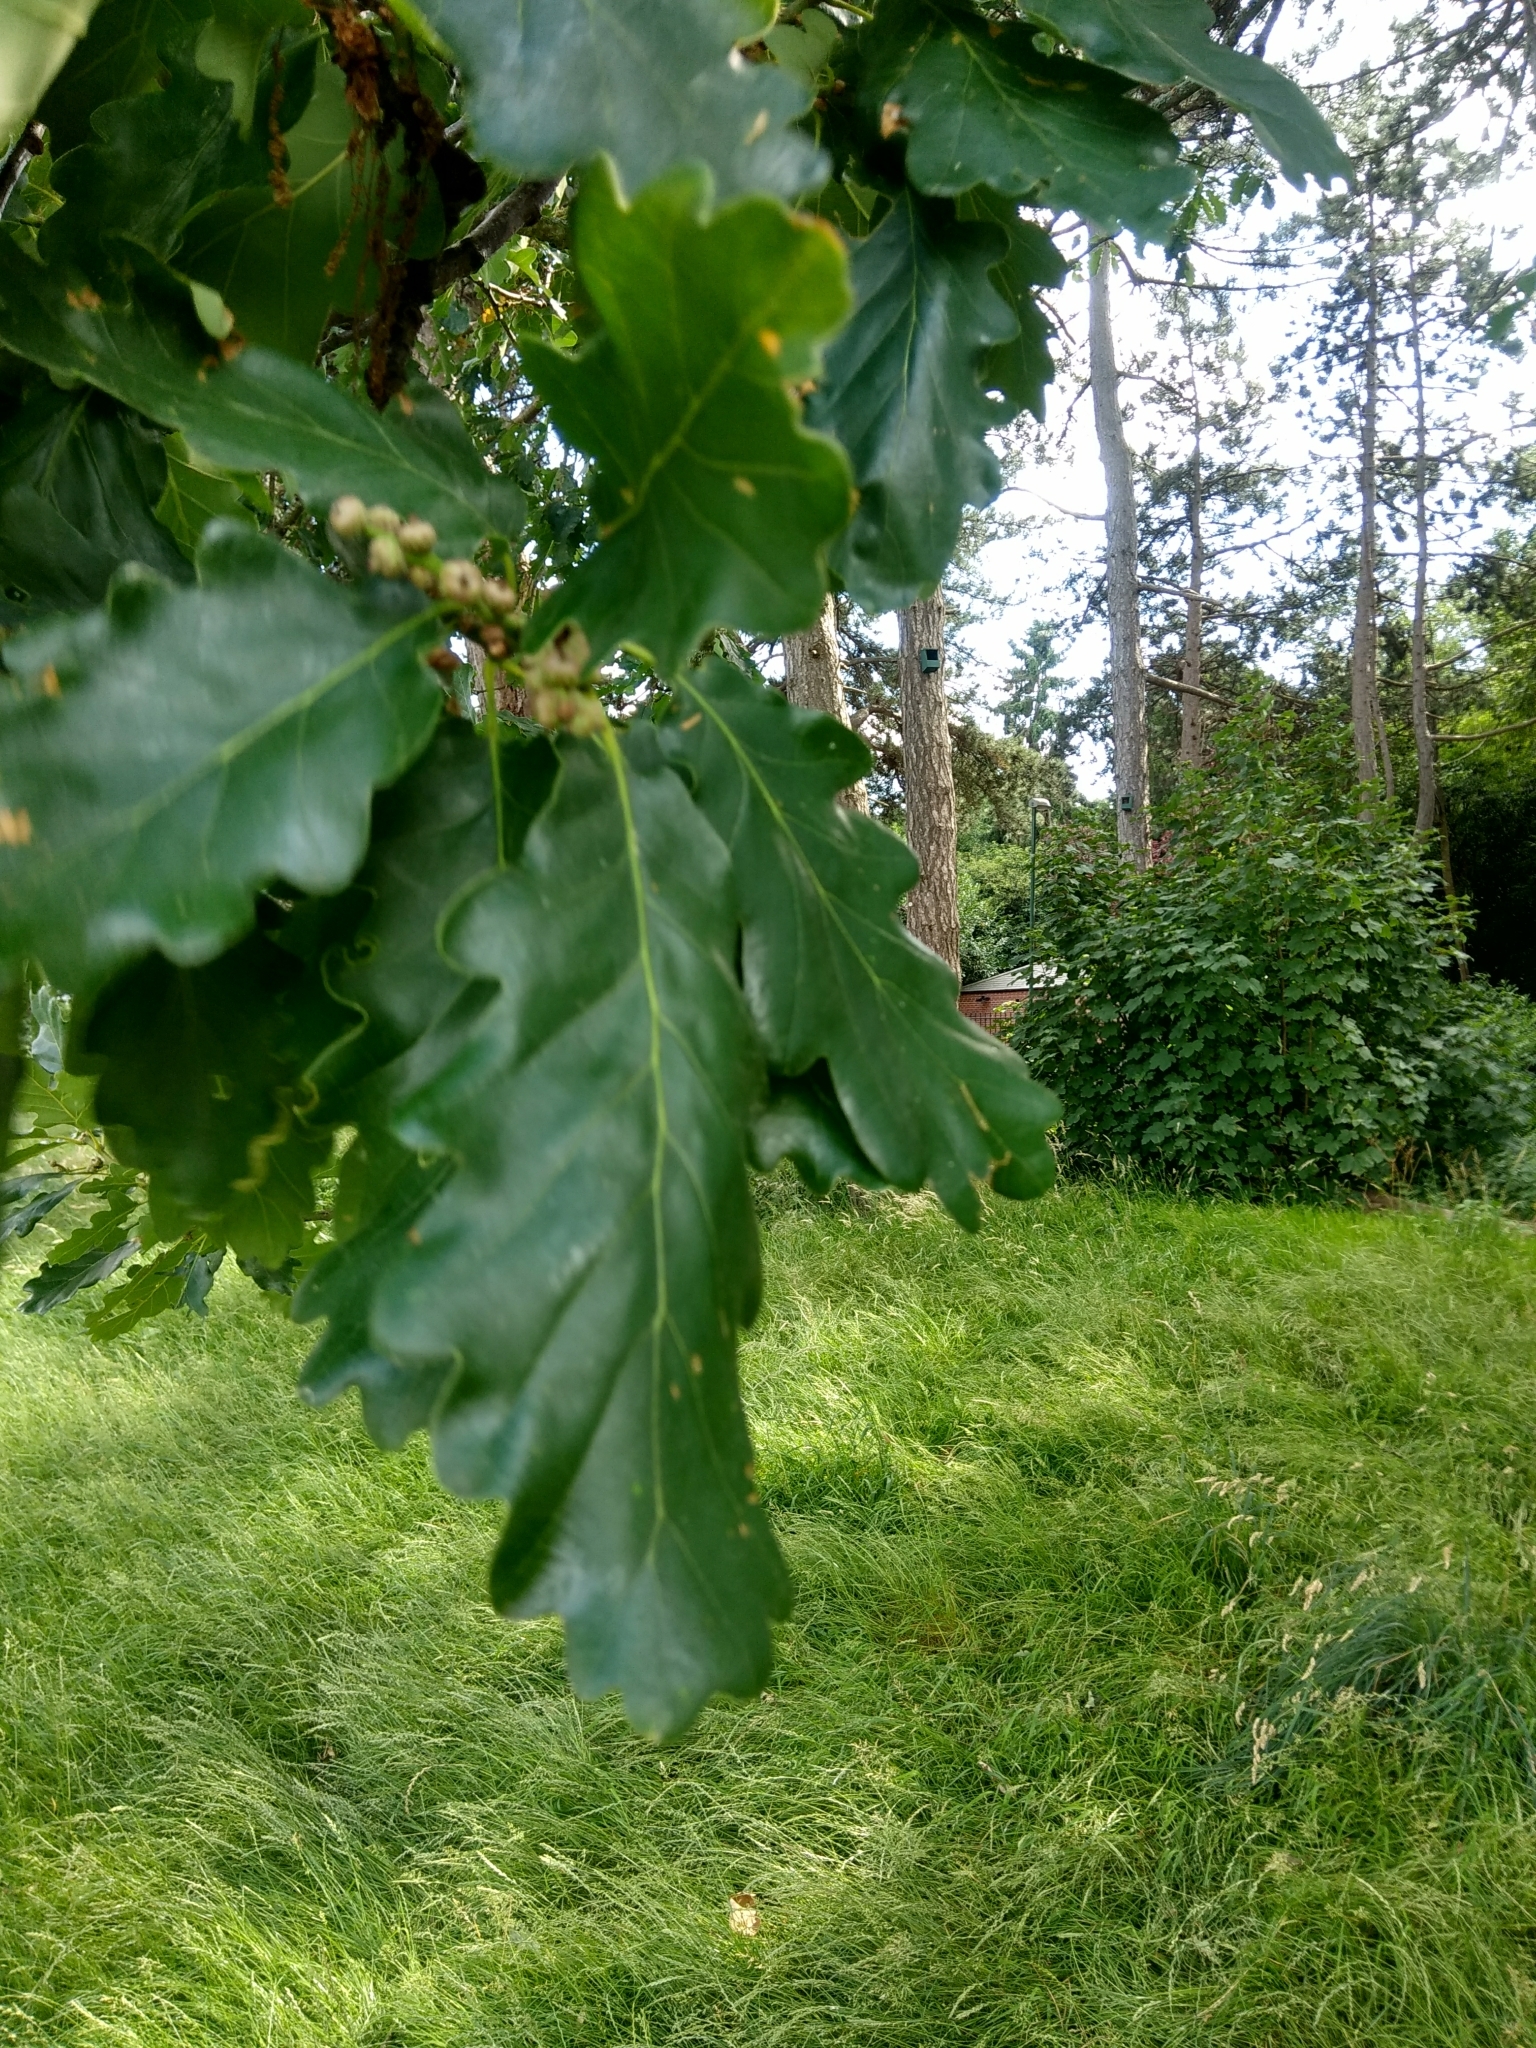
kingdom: Plantae
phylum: Tracheophyta
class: Magnoliopsida
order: Fagales
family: Fagaceae
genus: Quercus
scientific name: Quercus petraea
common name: Sessile oak
